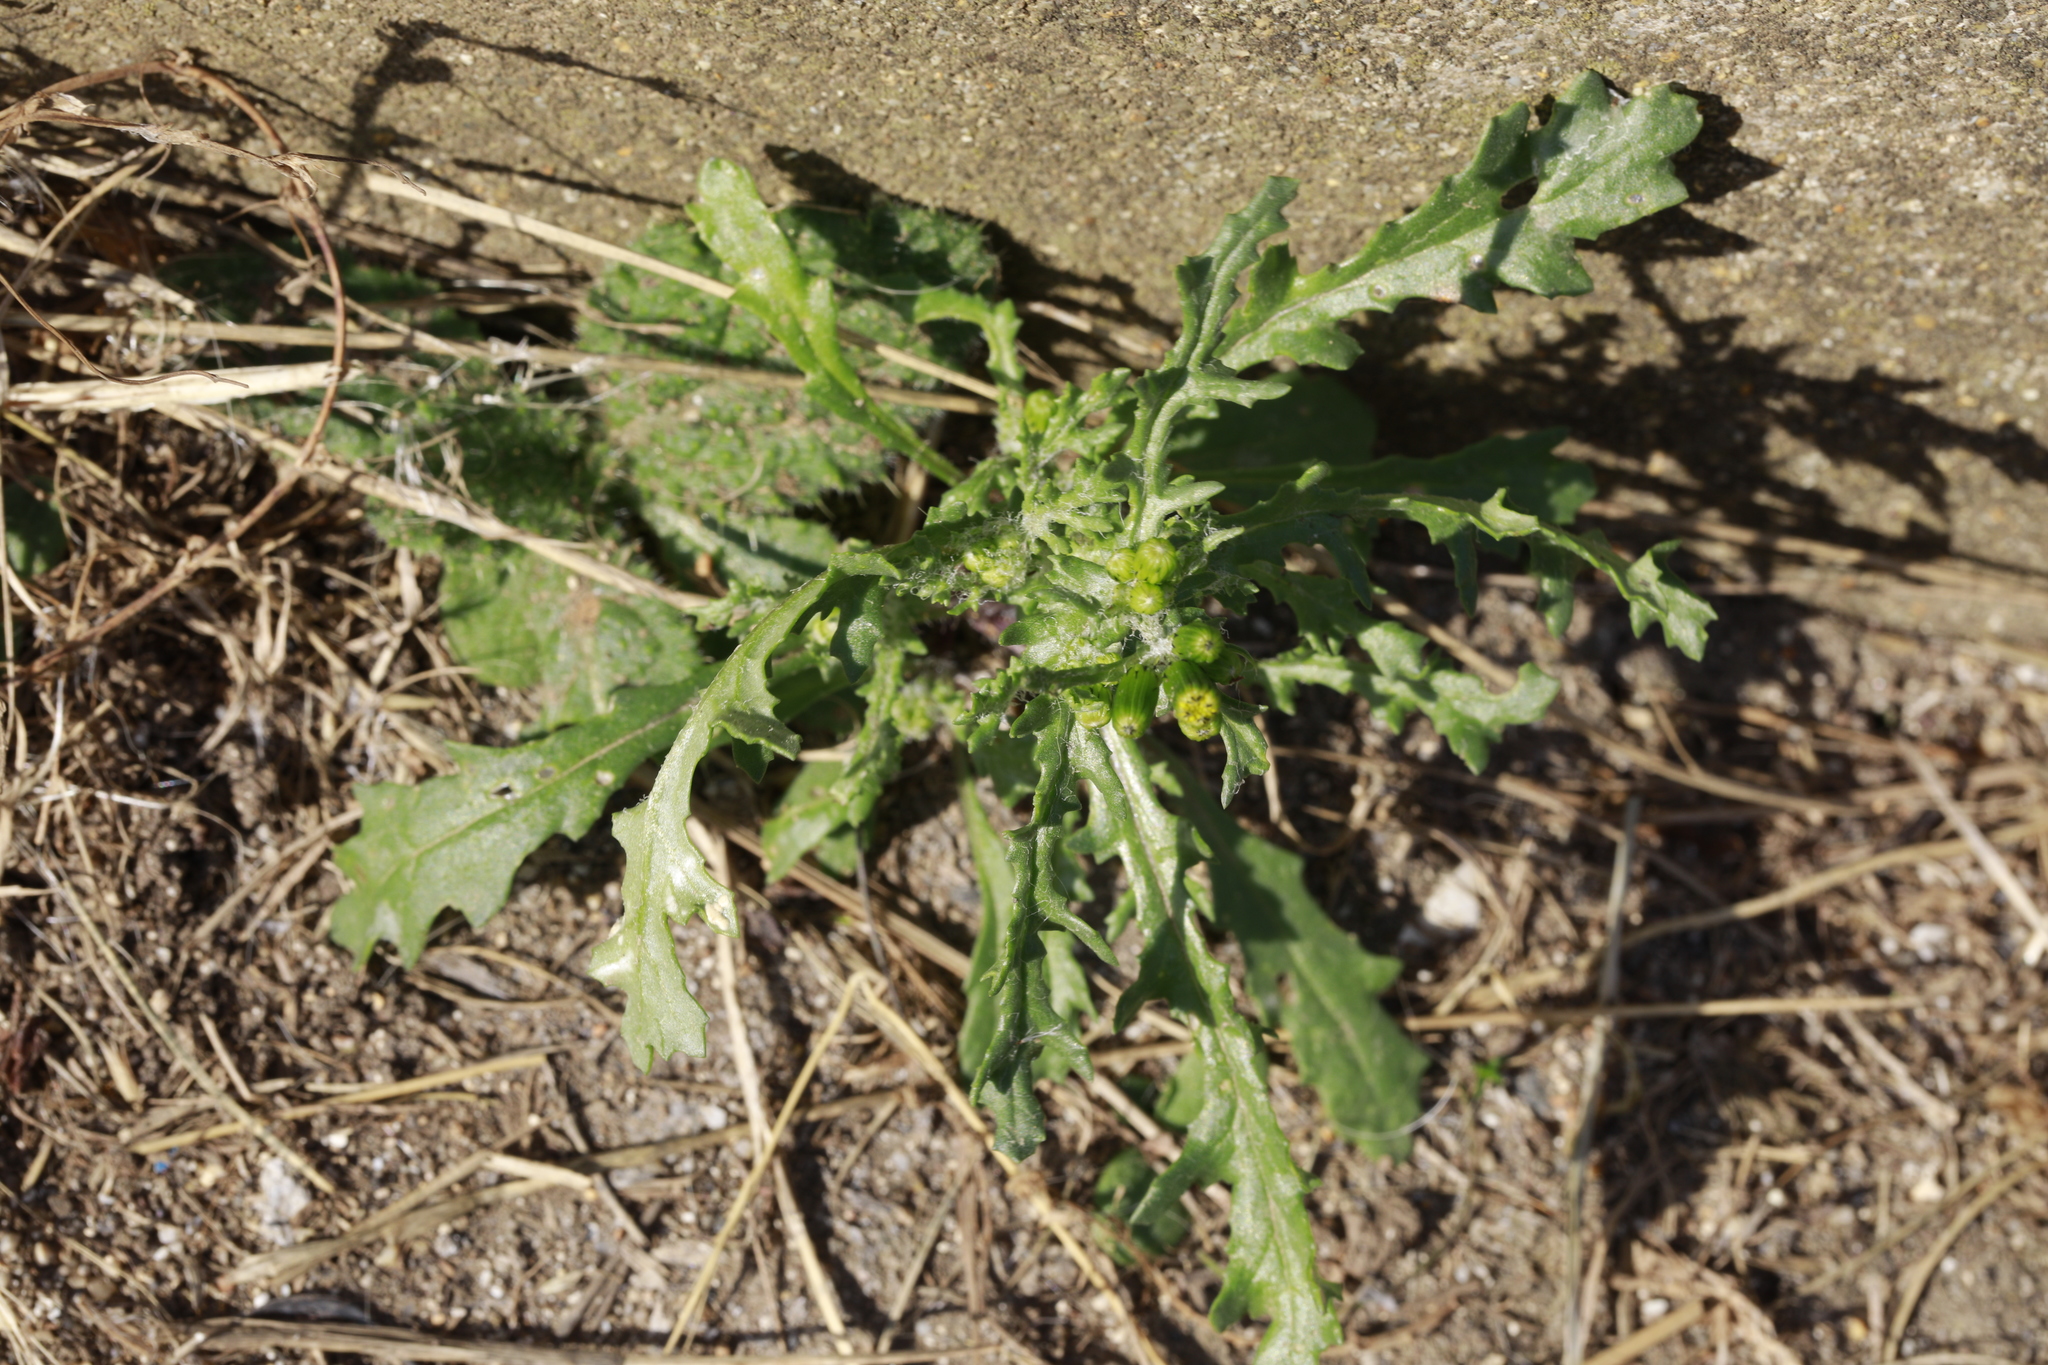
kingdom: Plantae
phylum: Tracheophyta
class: Magnoliopsida
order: Asterales
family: Asteraceae
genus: Senecio
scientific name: Senecio vulgaris
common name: Old-man-in-the-spring
